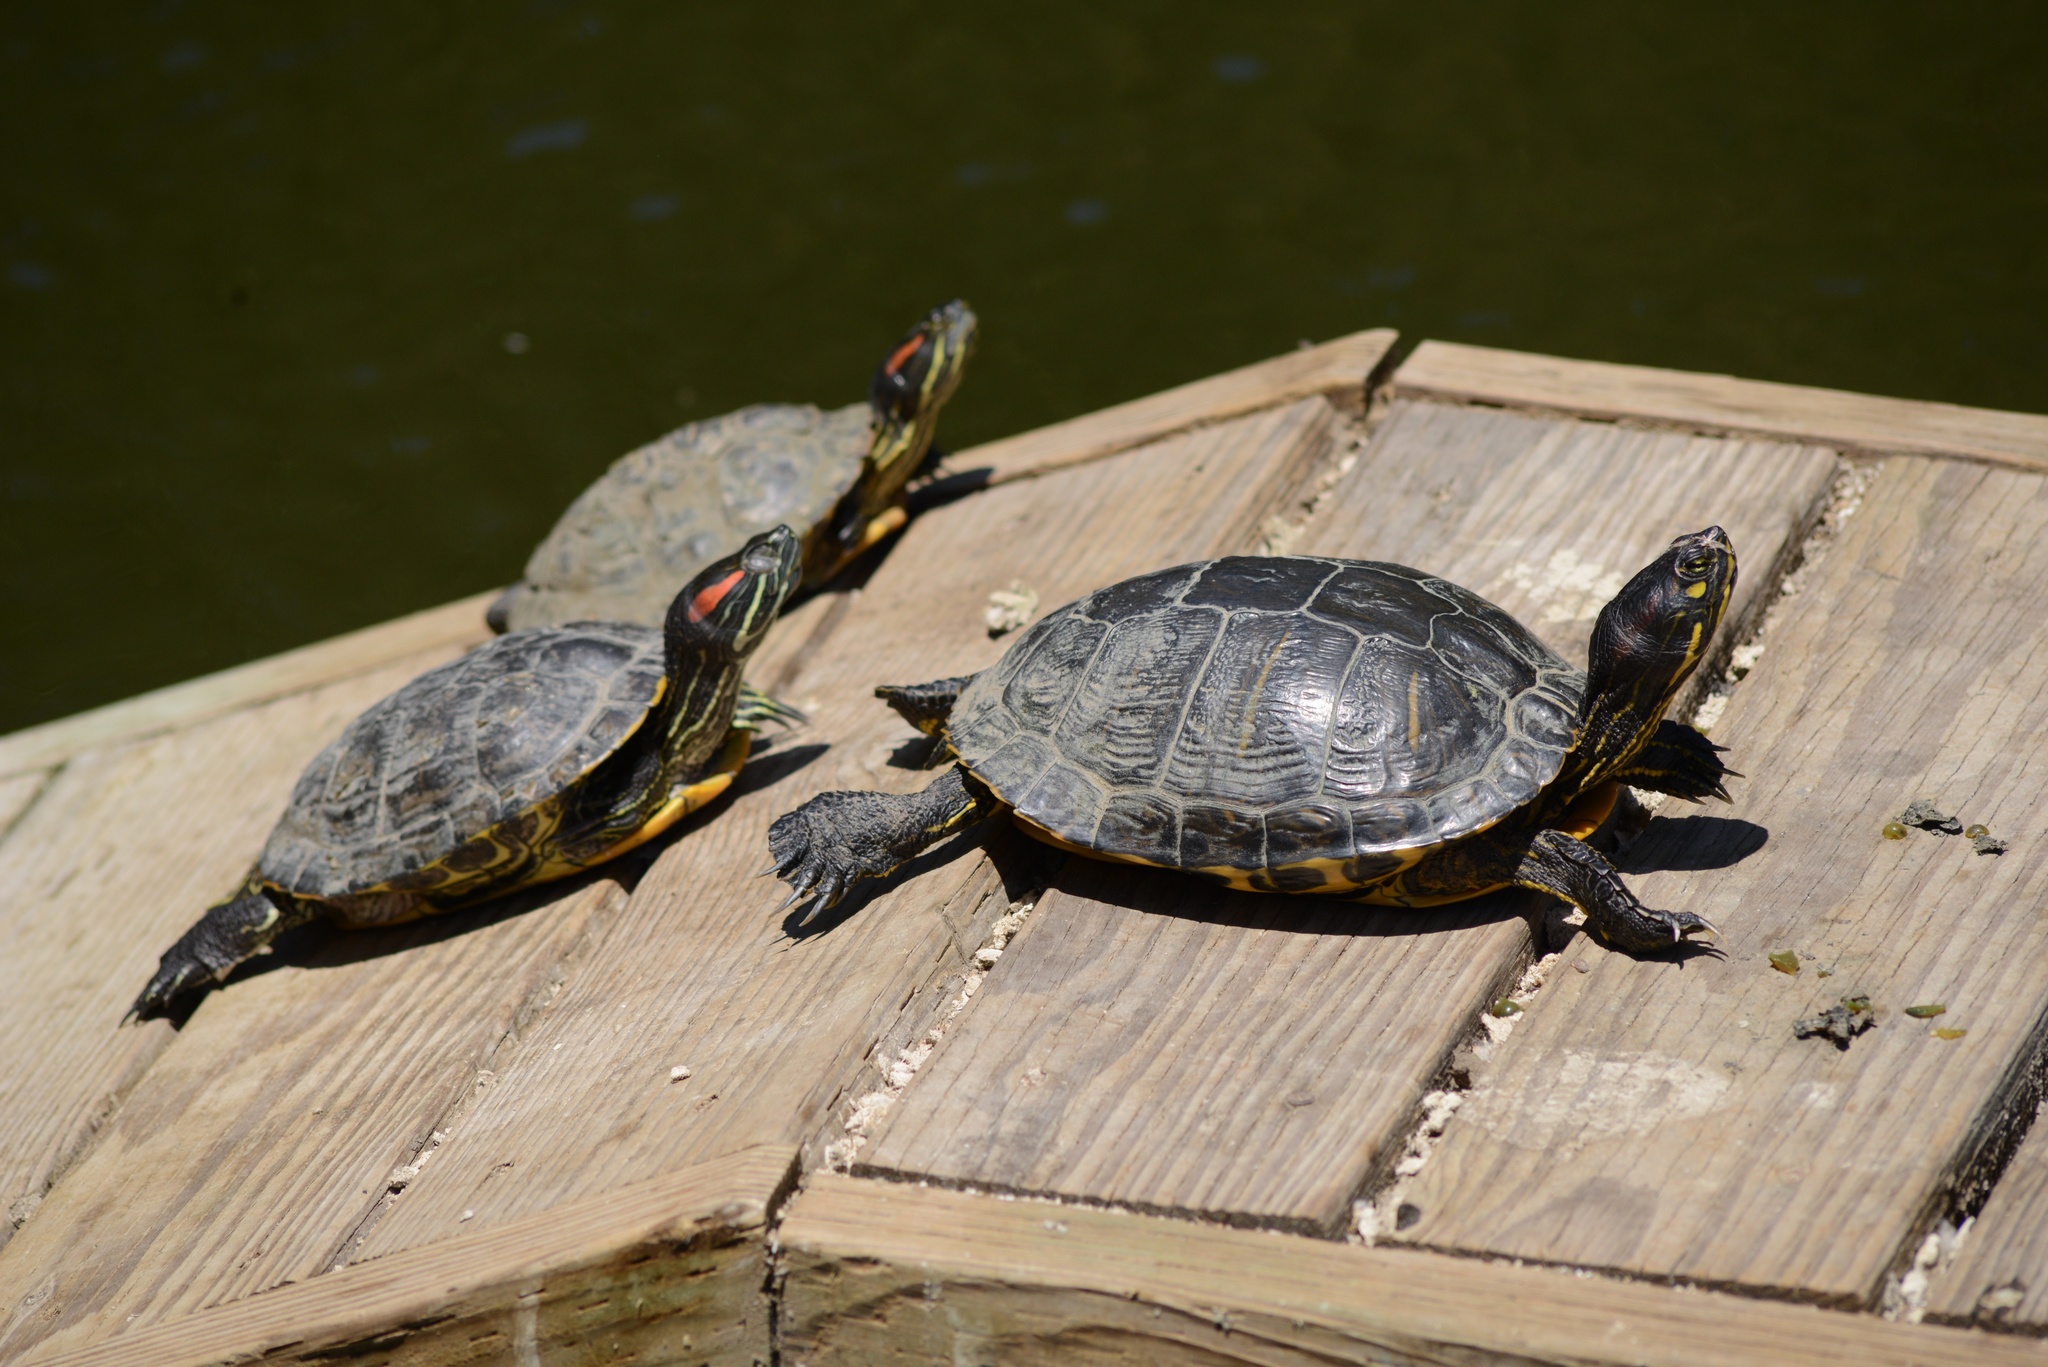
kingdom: Animalia
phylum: Chordata
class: Testudines
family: Emydidae
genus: Trachemys
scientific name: Trachemys scripta
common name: Slider
